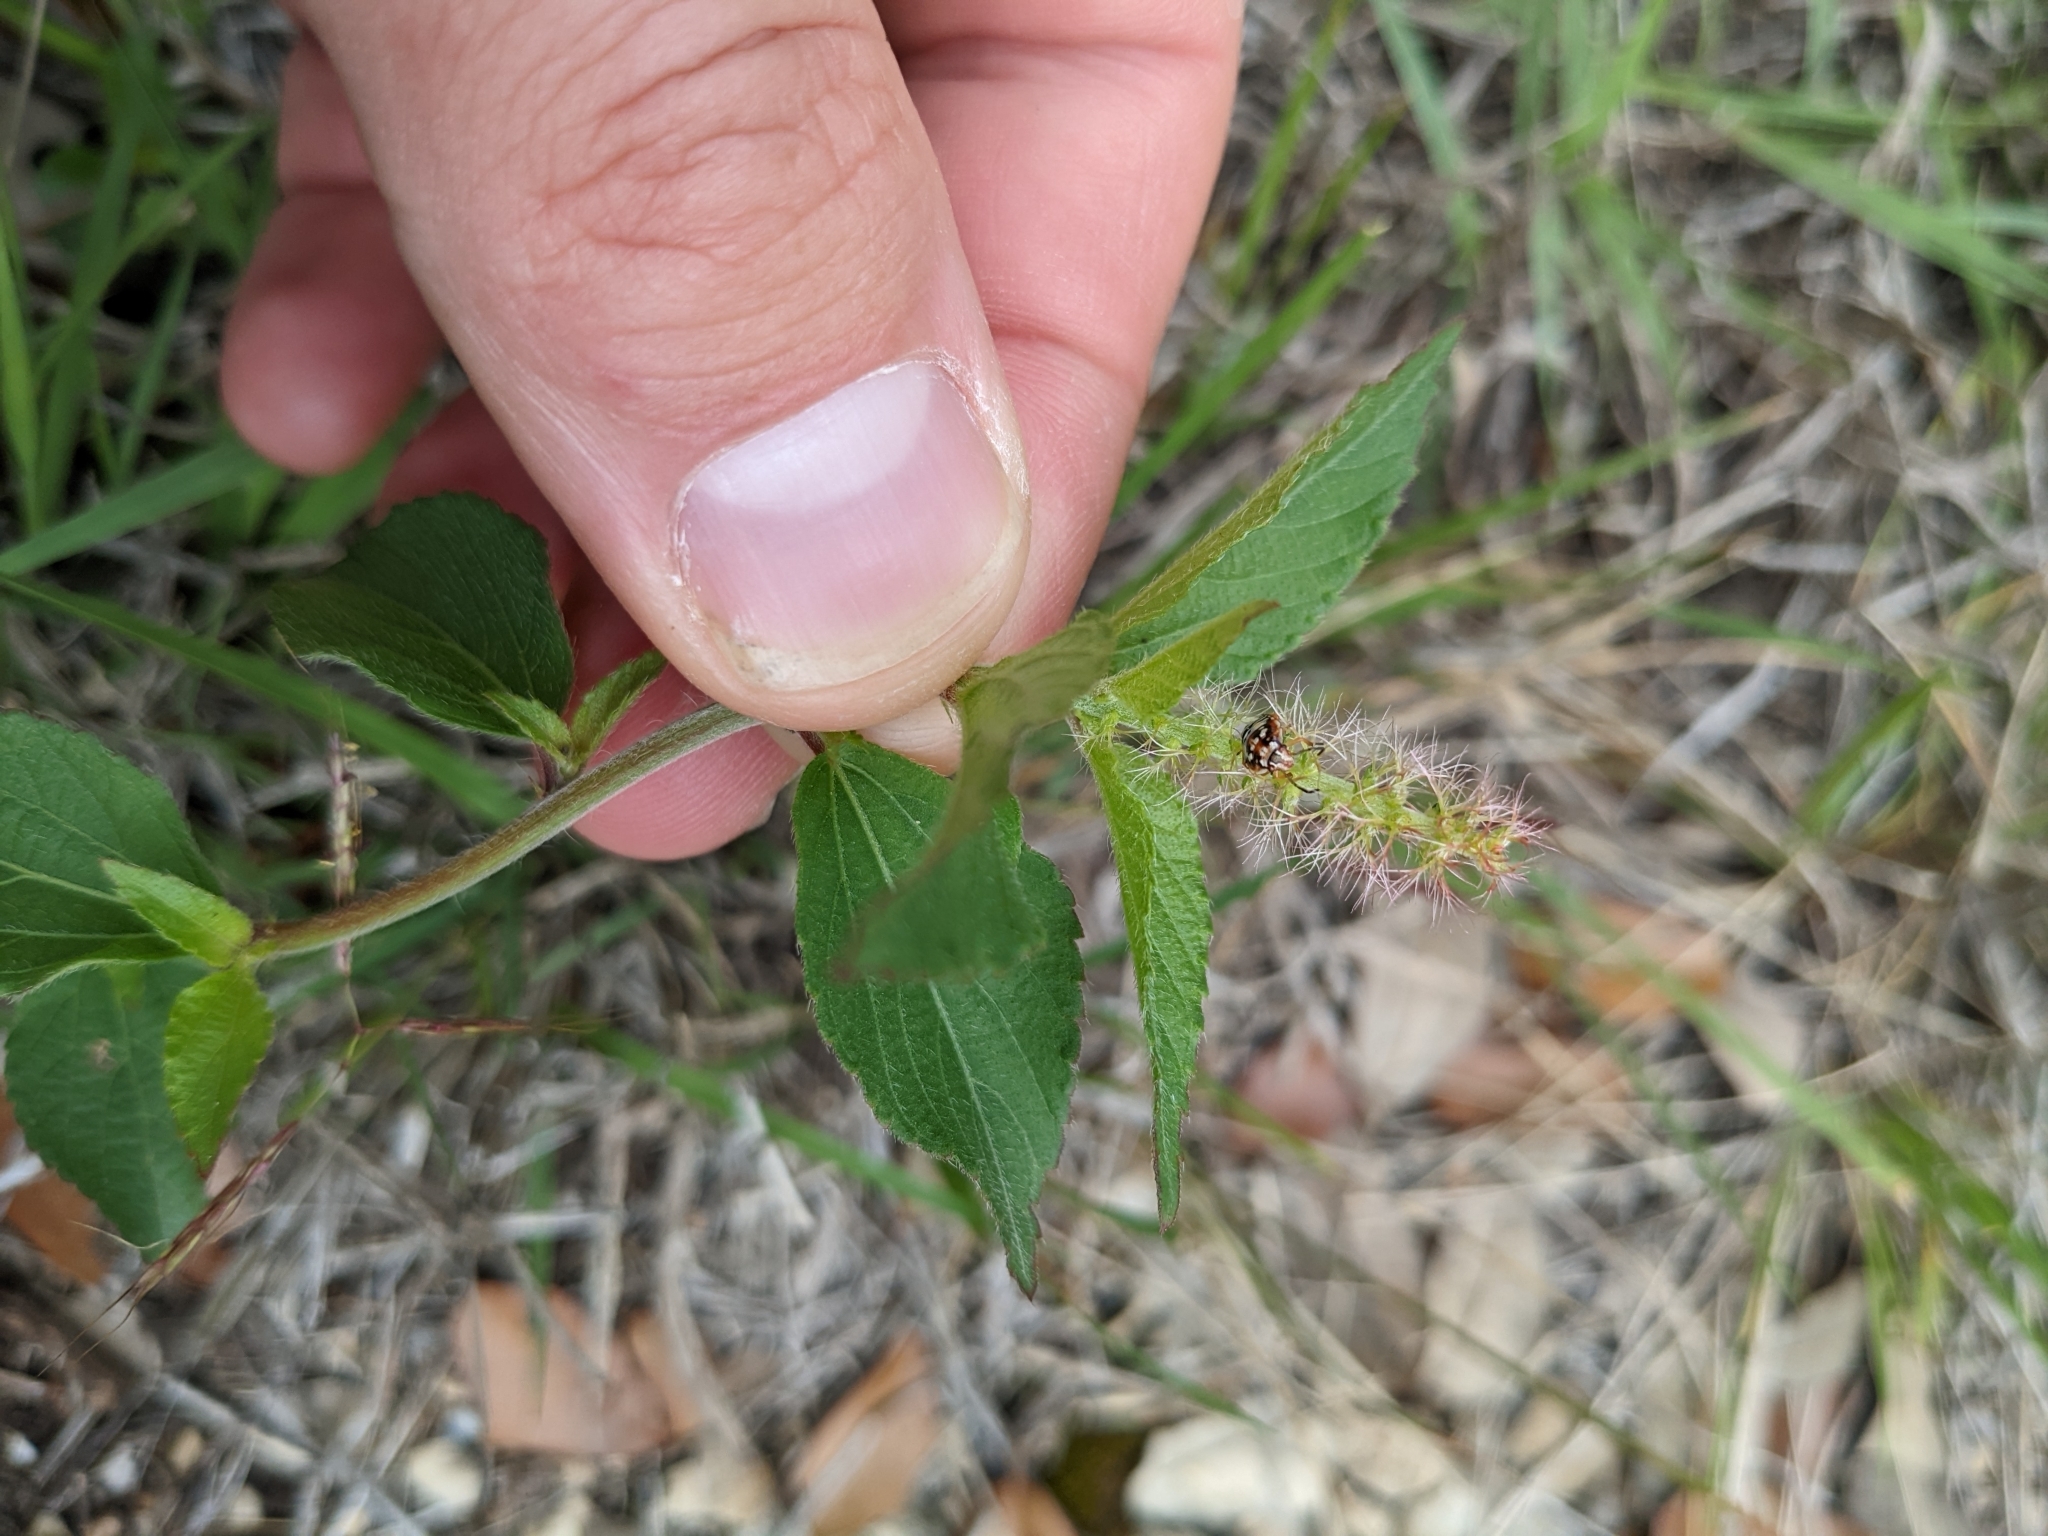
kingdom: Plantae
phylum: Tracheophyta
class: Magnoliopsida
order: Malpighiales
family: Euphorbiaceae
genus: Acalypha
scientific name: Acalypha phleoides
